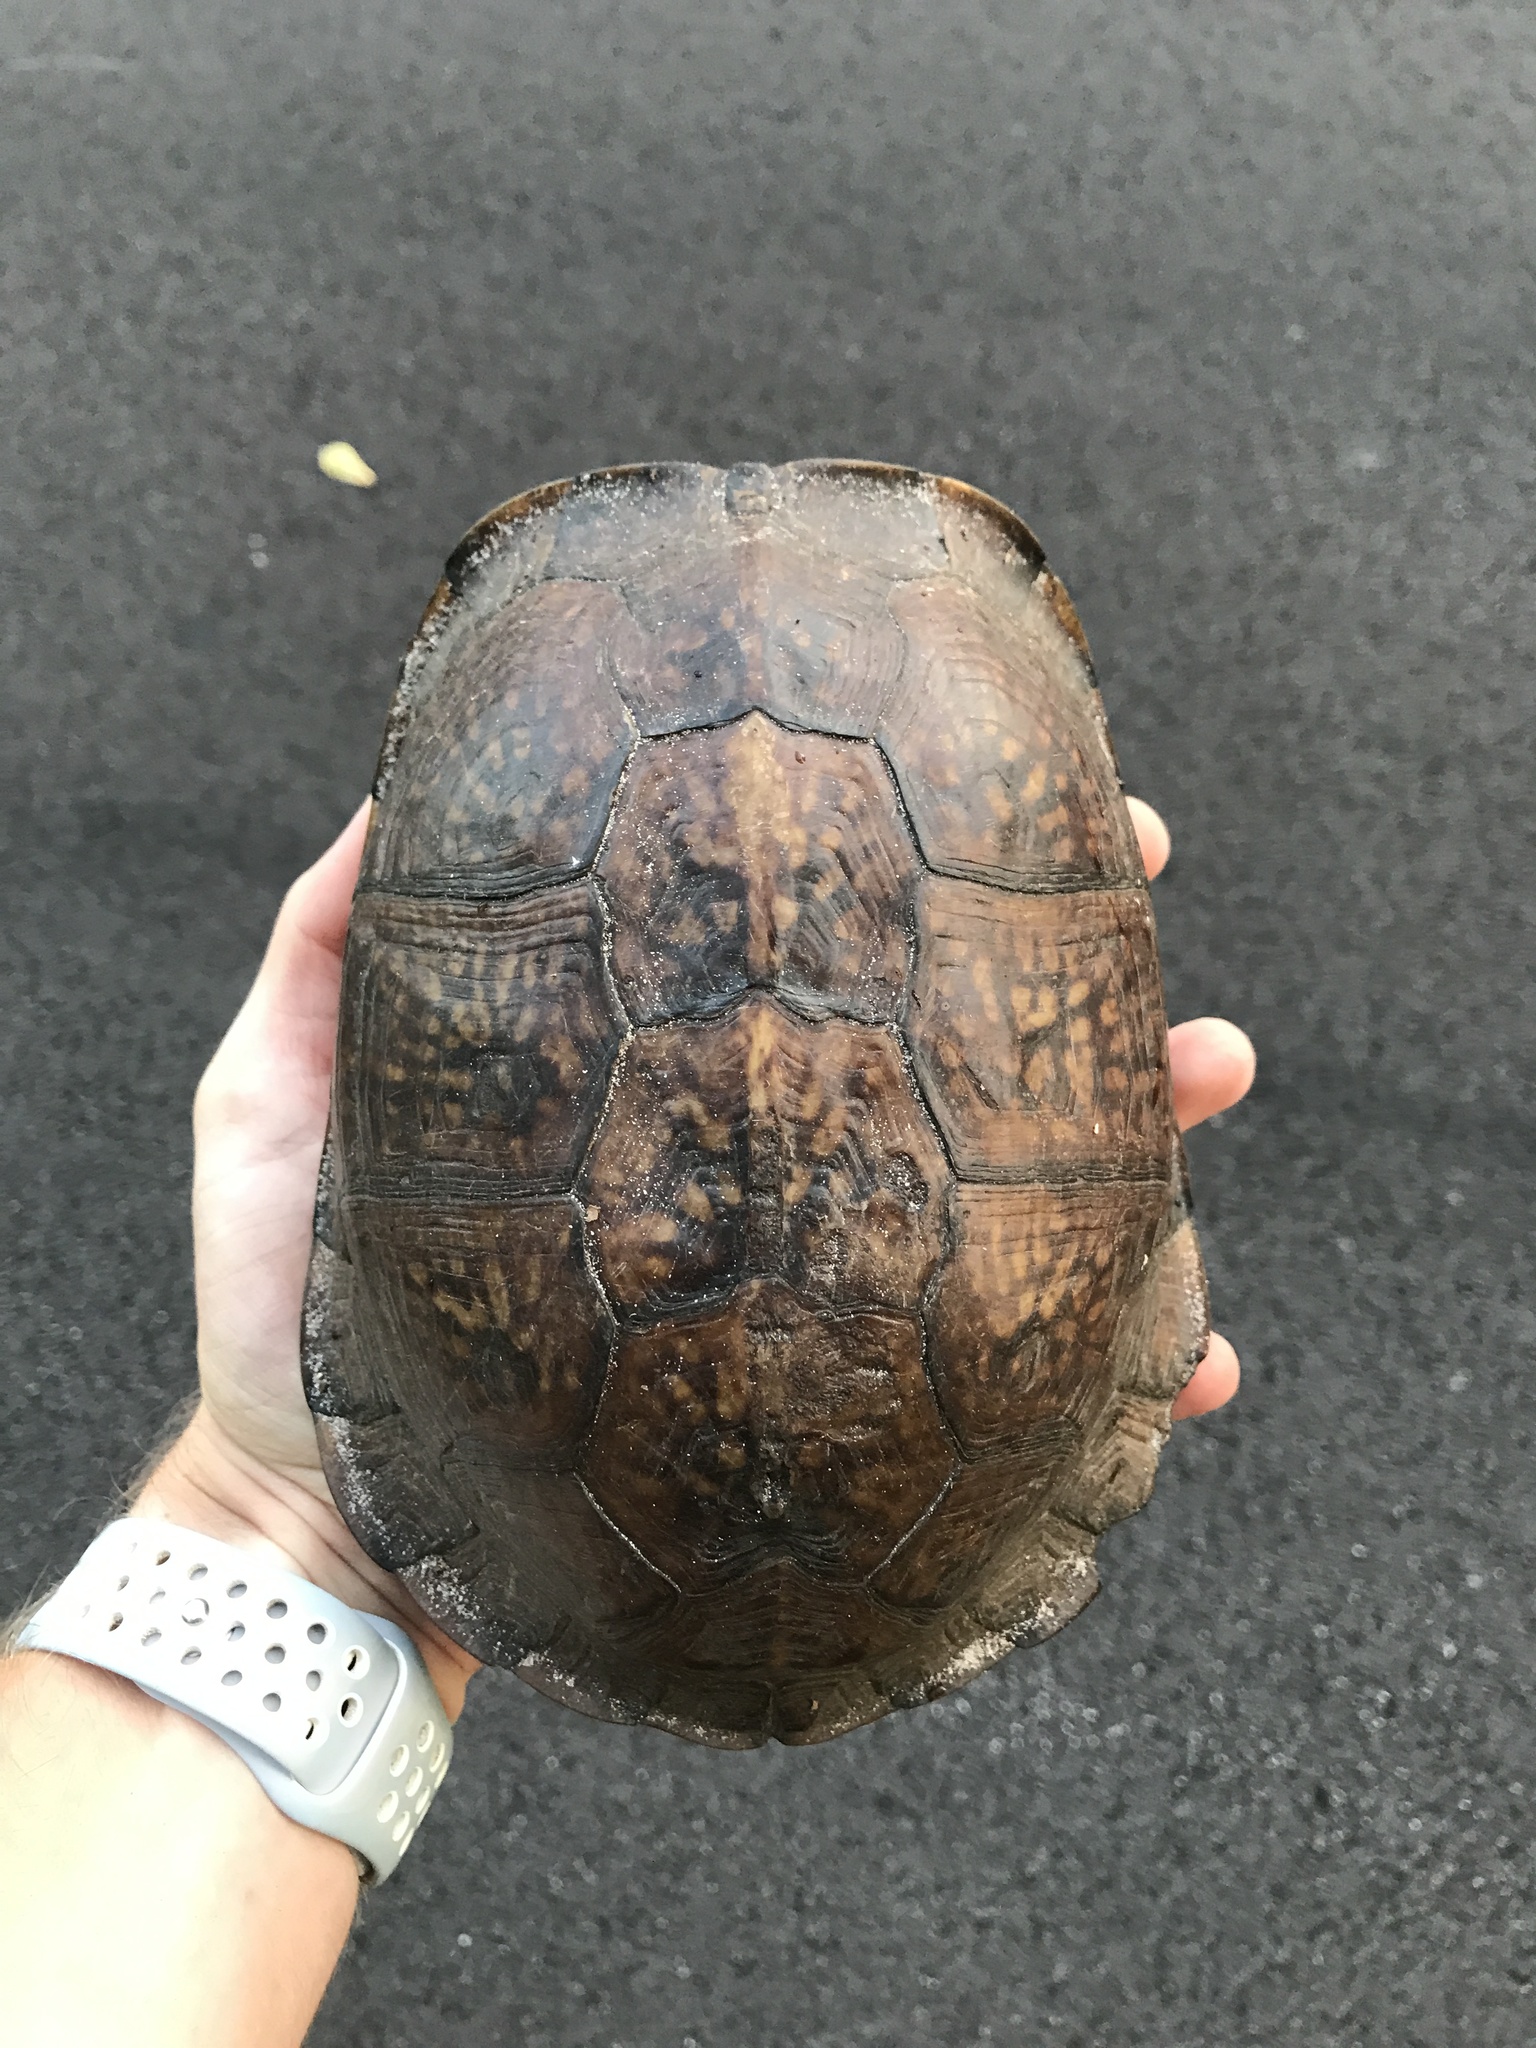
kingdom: Animalia
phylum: Chordata
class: Testudines
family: Emydidae
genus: Terrapene
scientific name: Terrapene carolina
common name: Common box turtle
